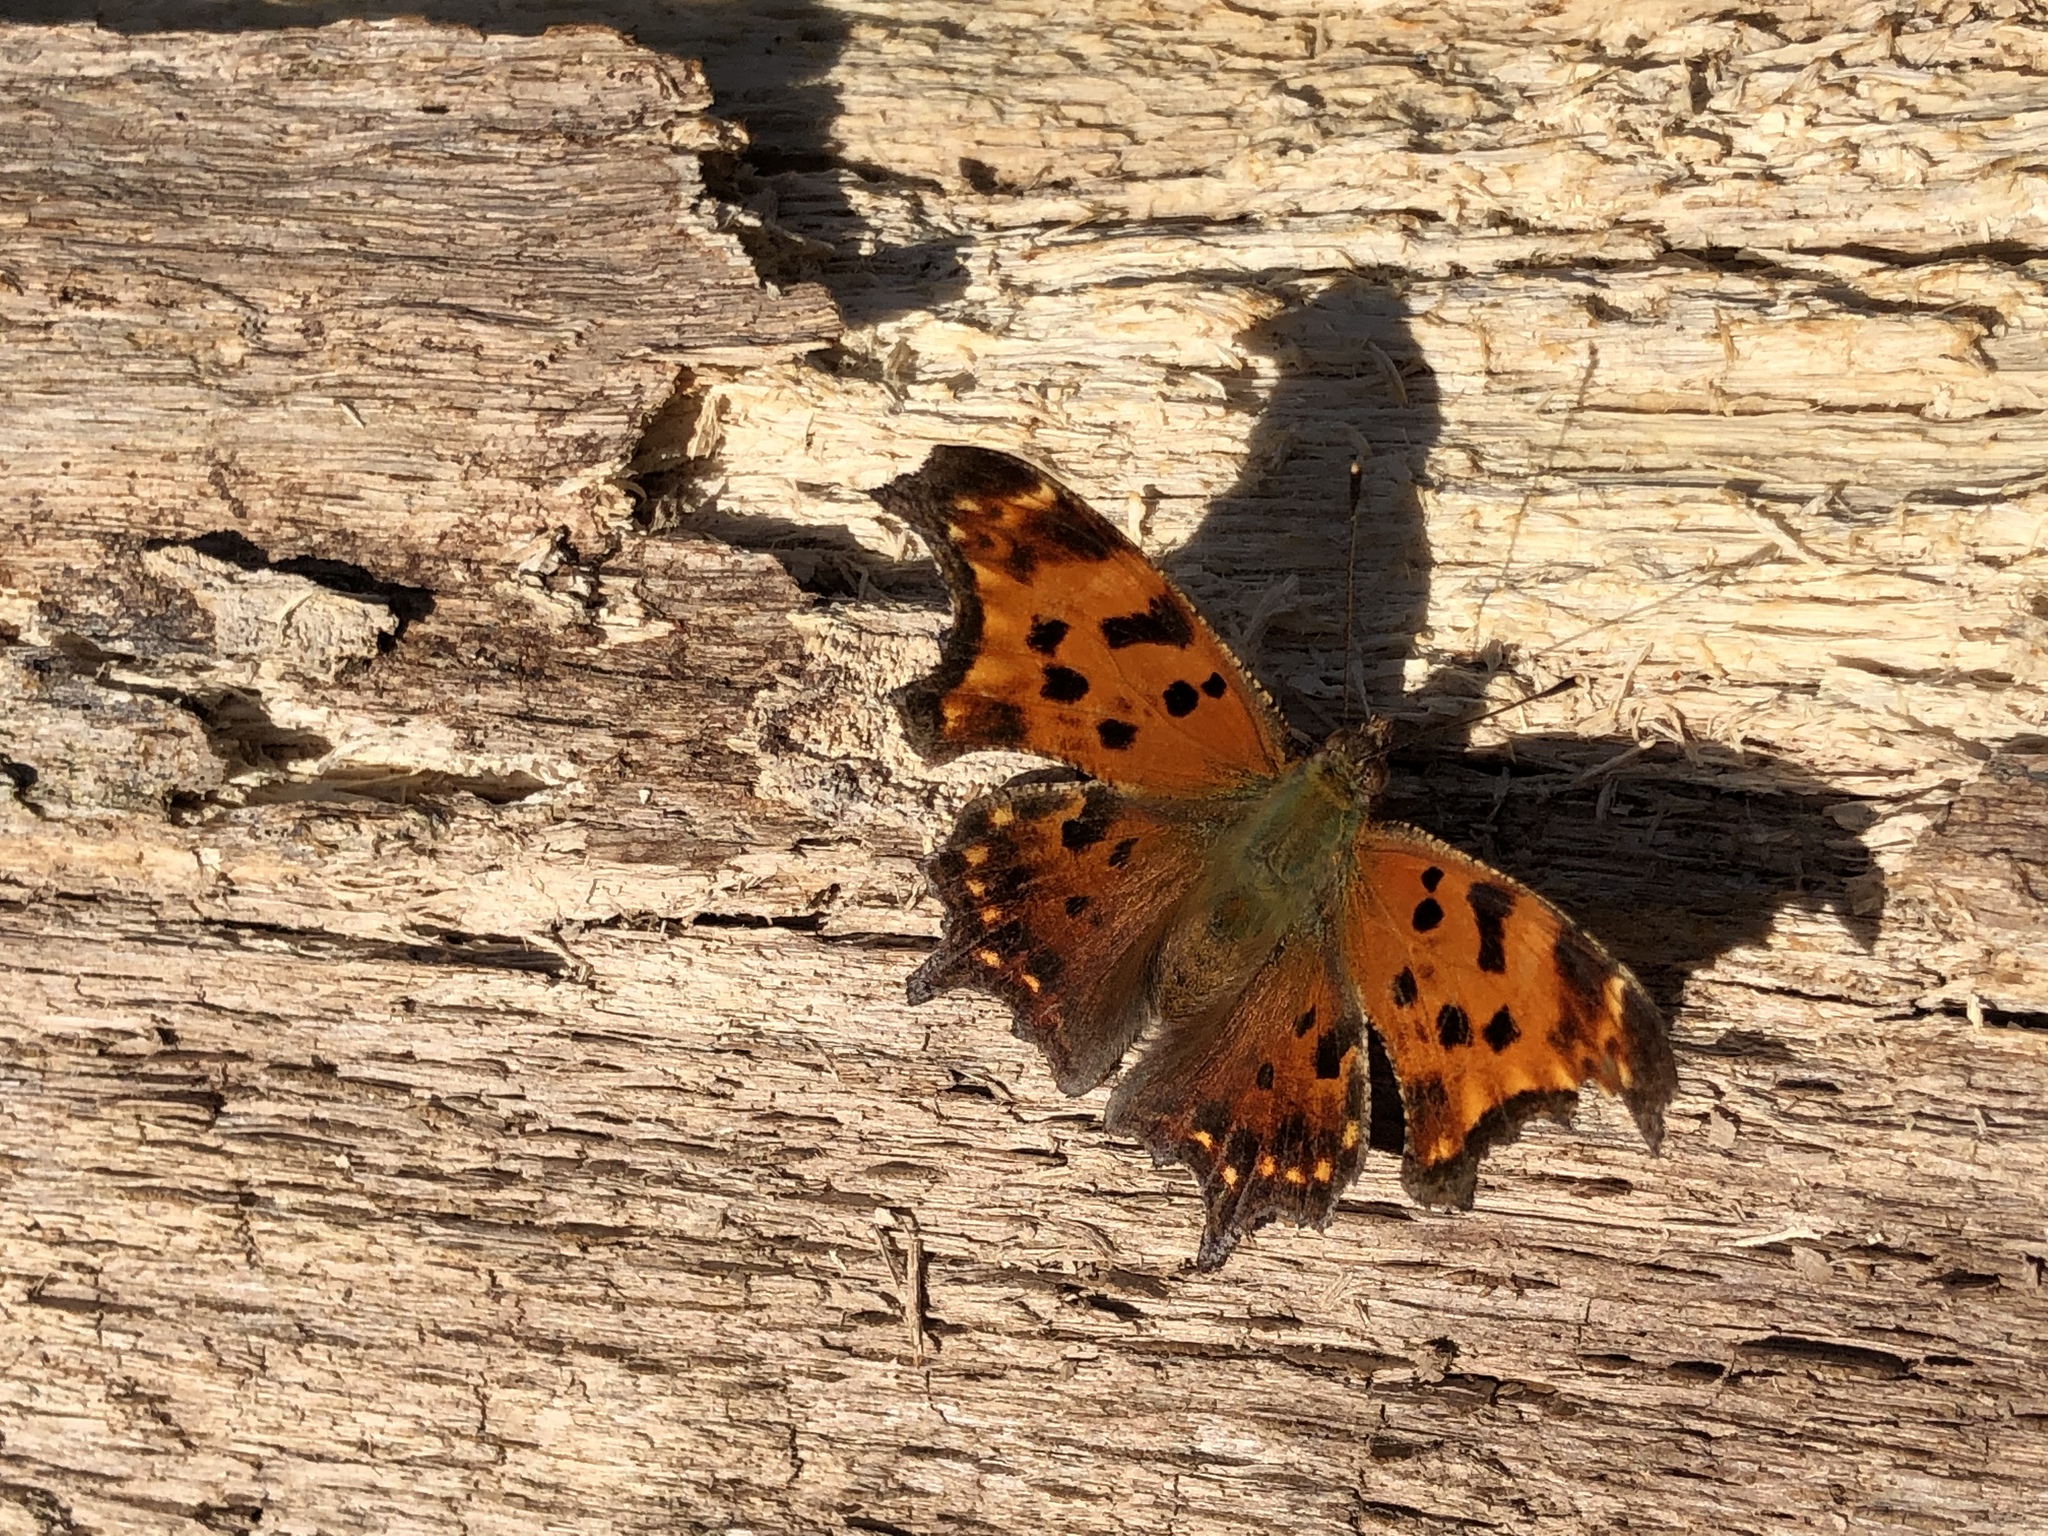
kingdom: Animalia
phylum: Arthropoda
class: Insecta
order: Lepidoptera
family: Nymphalidae
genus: Polygonia
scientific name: Polygonia comma
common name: Eastern comma
